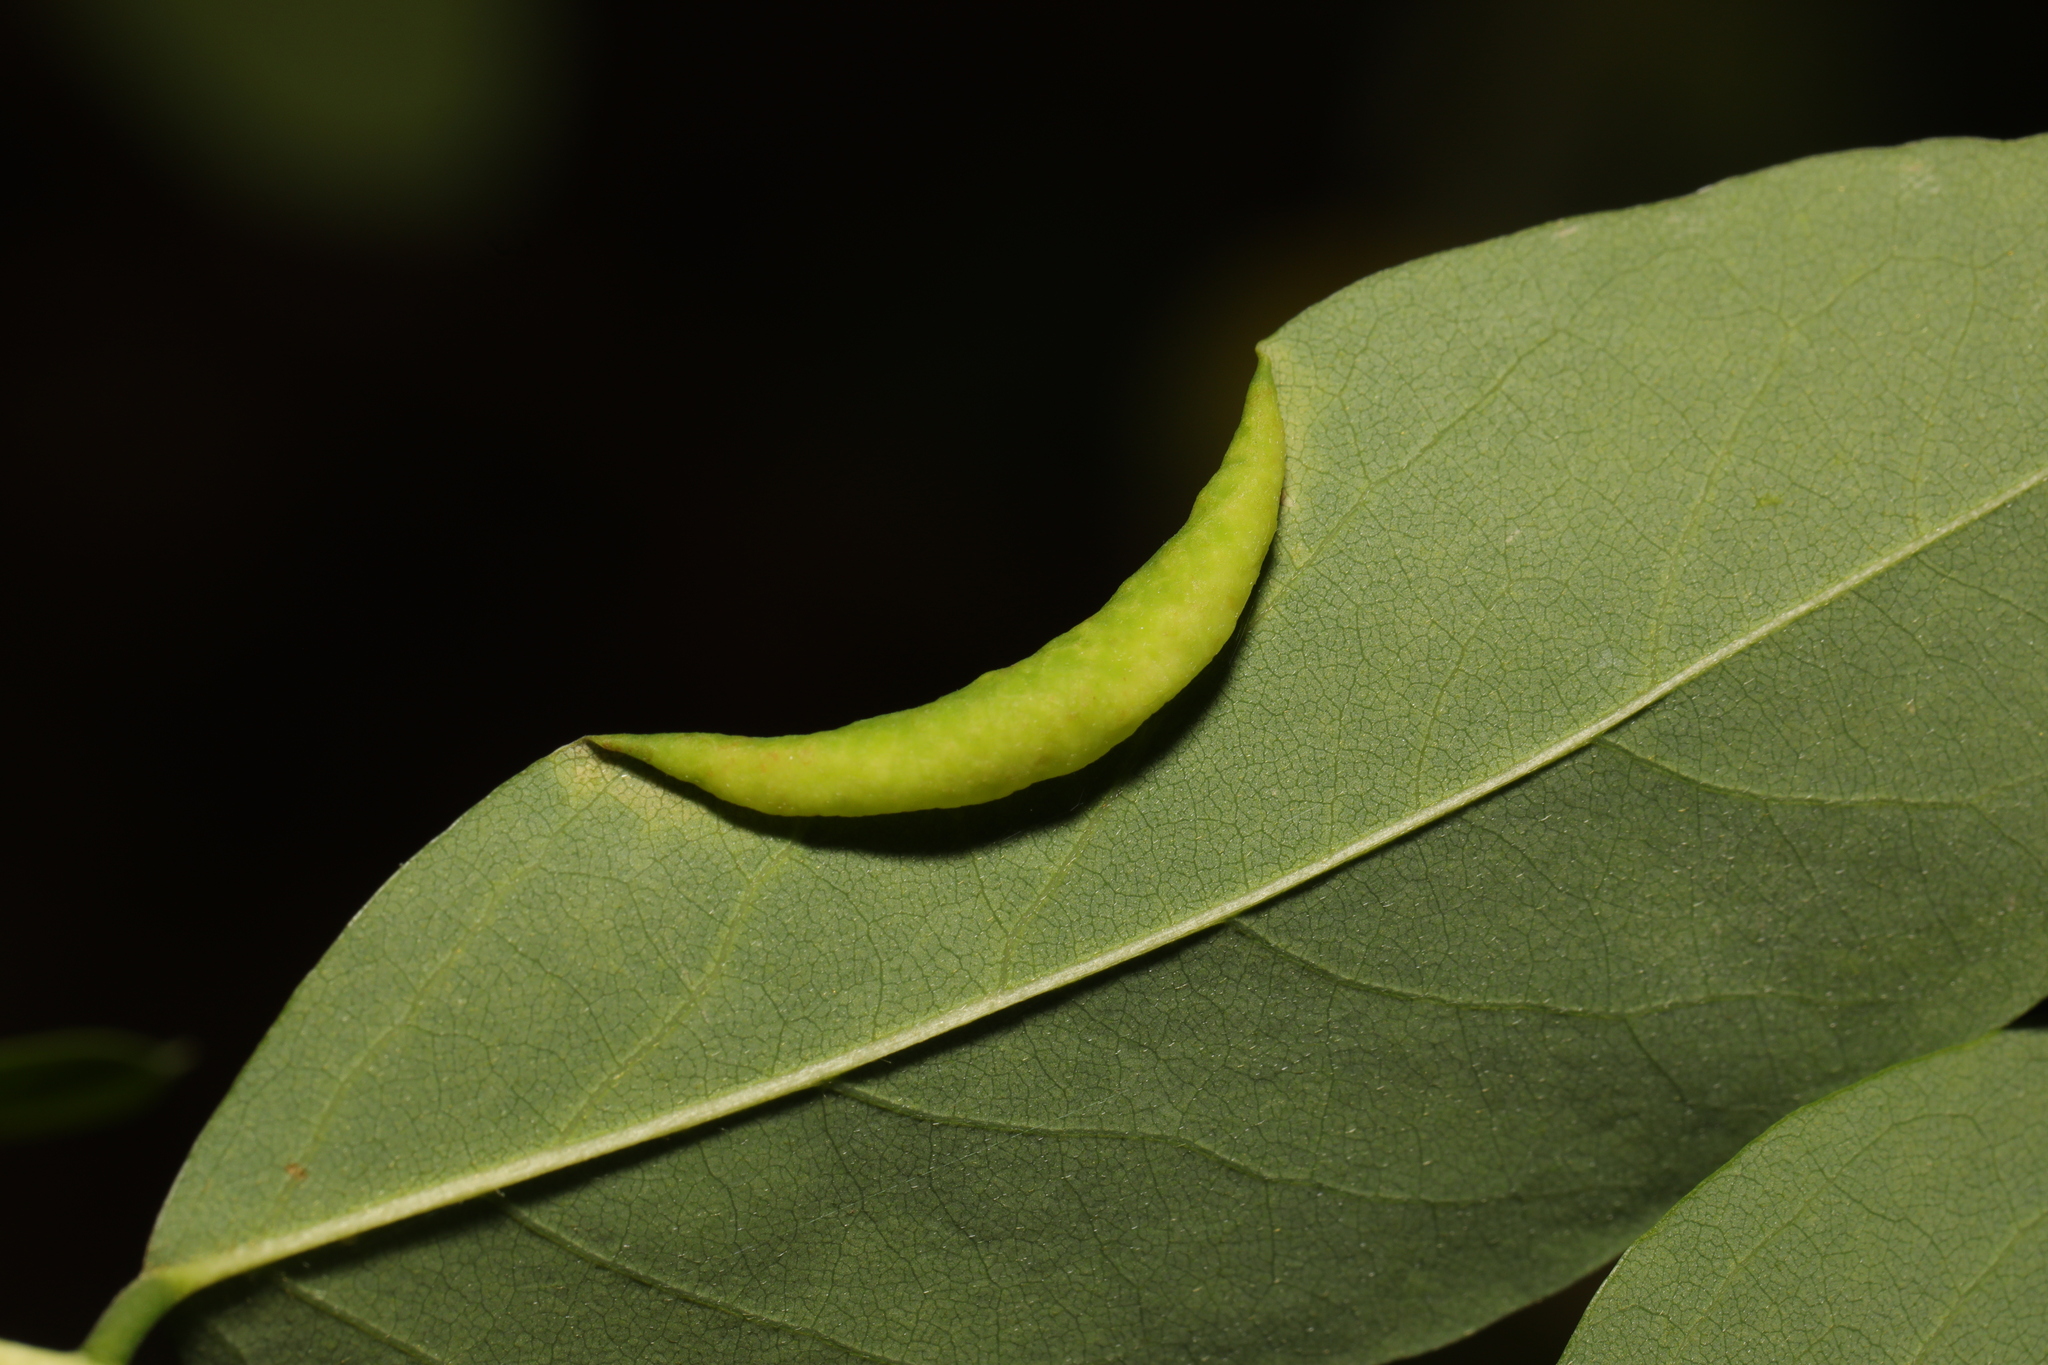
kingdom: Animalia
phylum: Arthropoda
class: Insecta
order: Diptera
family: Cecidomyiidae
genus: Obolodiplosis
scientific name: Obolodiplosis robiniae
